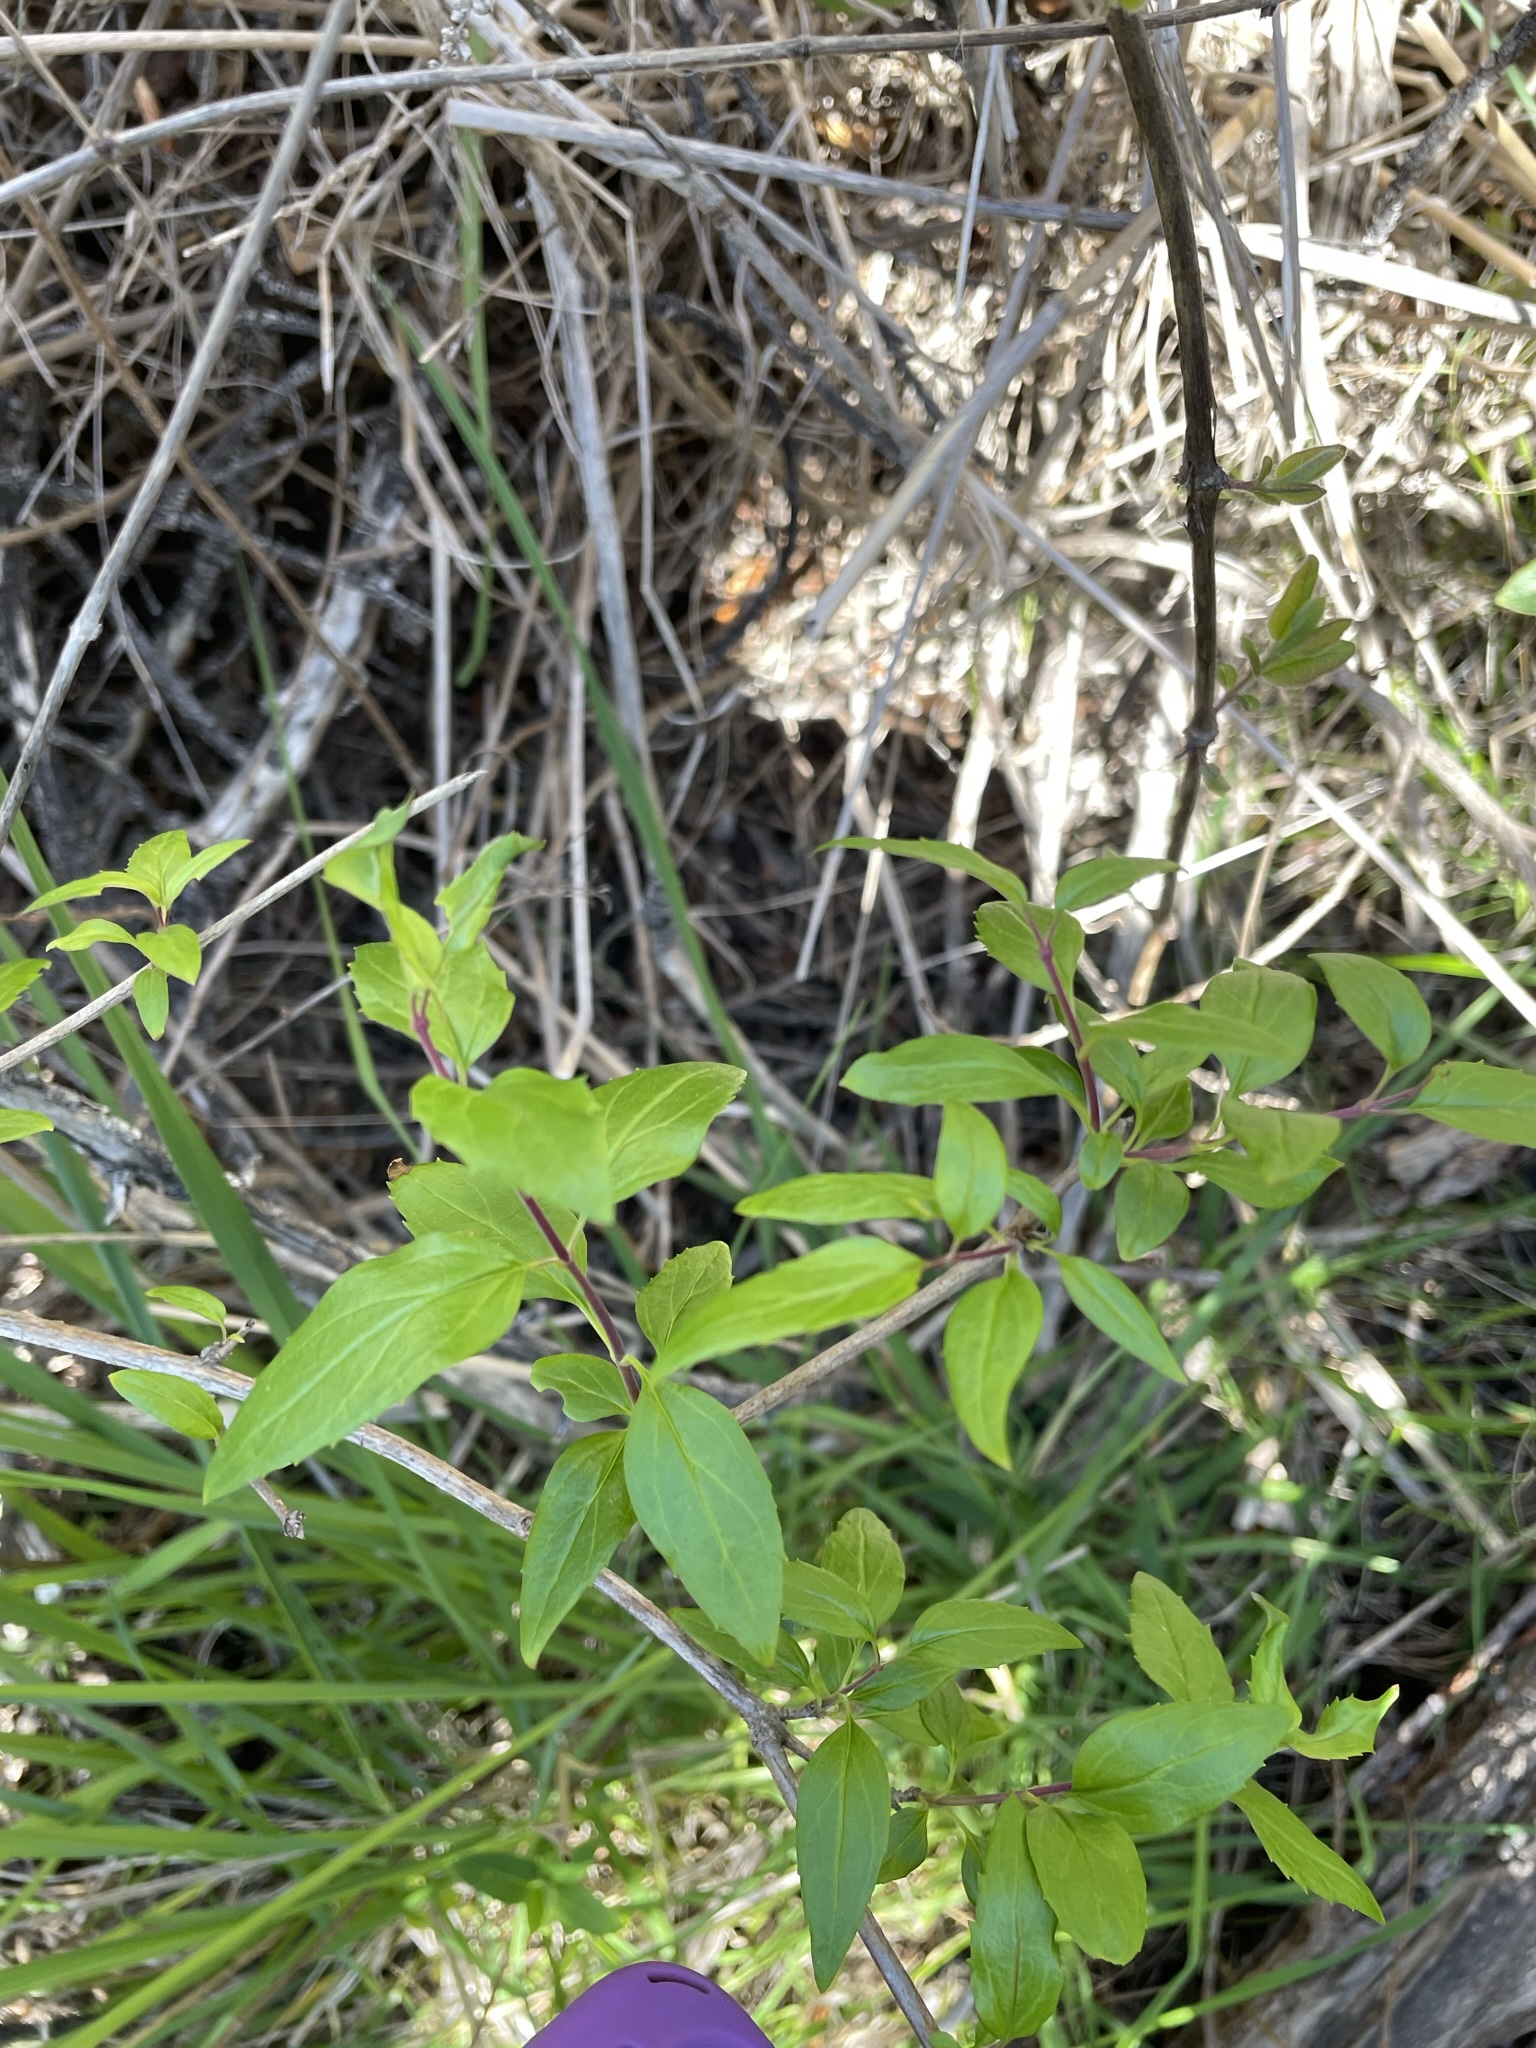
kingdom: Plantae
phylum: Tracheophyta
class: Magnoliopsida
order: Lamiales
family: Plantaginaceae
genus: Keckiella
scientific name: Keckiella cordifolia
